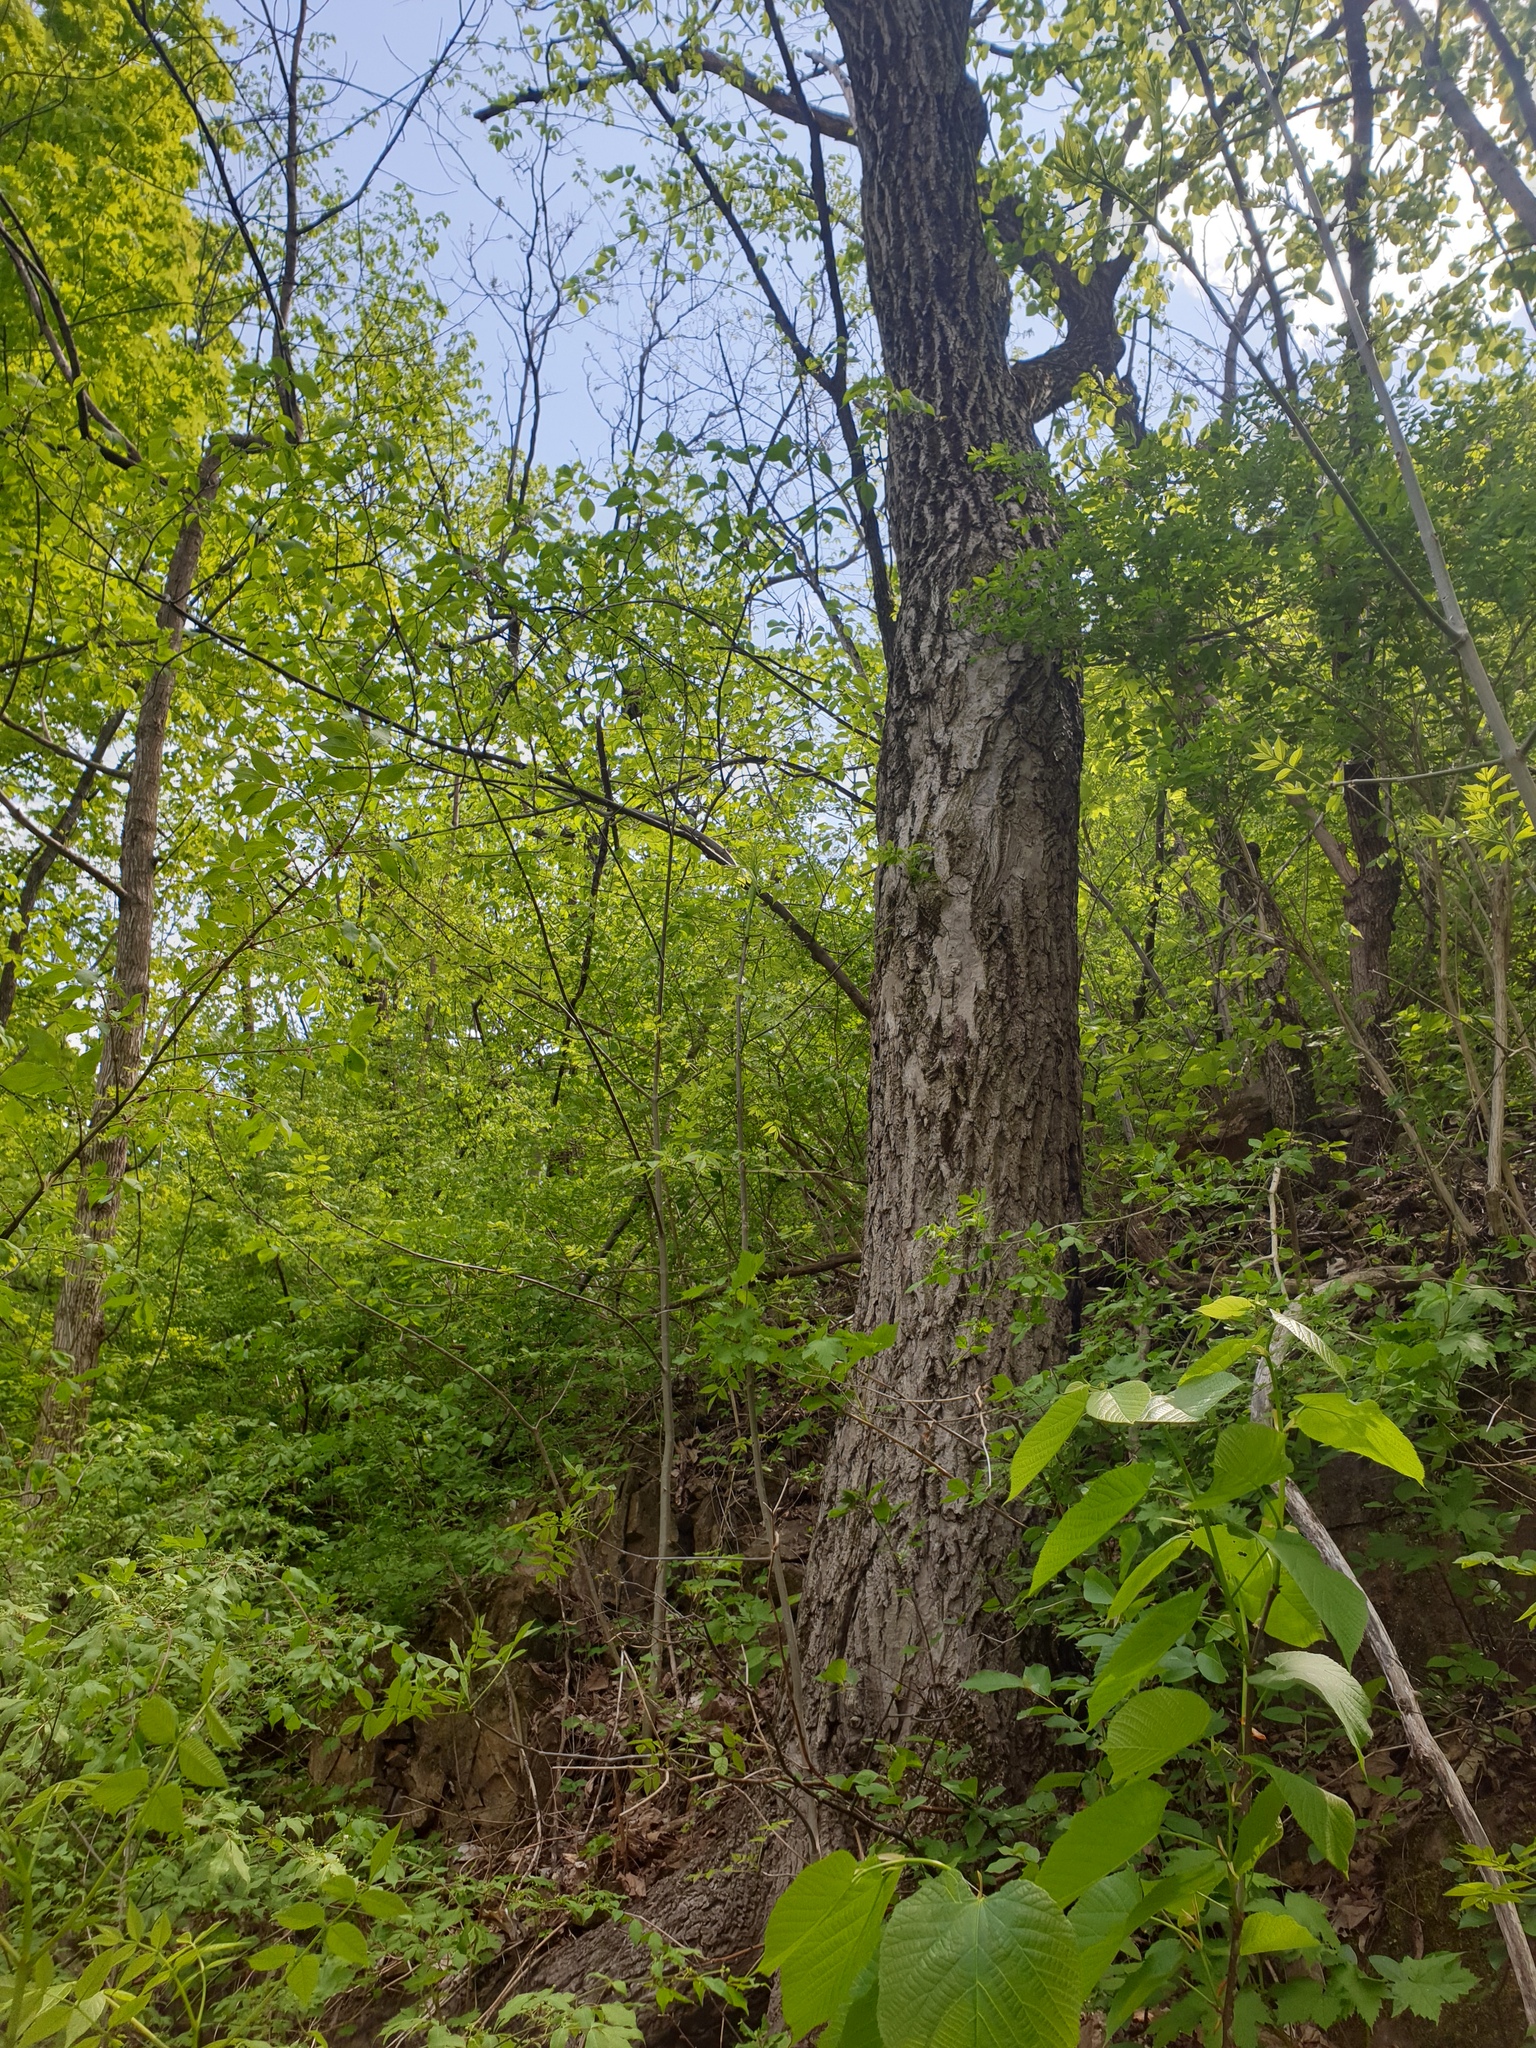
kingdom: Plantae
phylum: Tracheophyta
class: Magnoliopsida
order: Fagales
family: Juglandaceae
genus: Juglans
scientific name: Juglans cinerea
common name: Butternut
